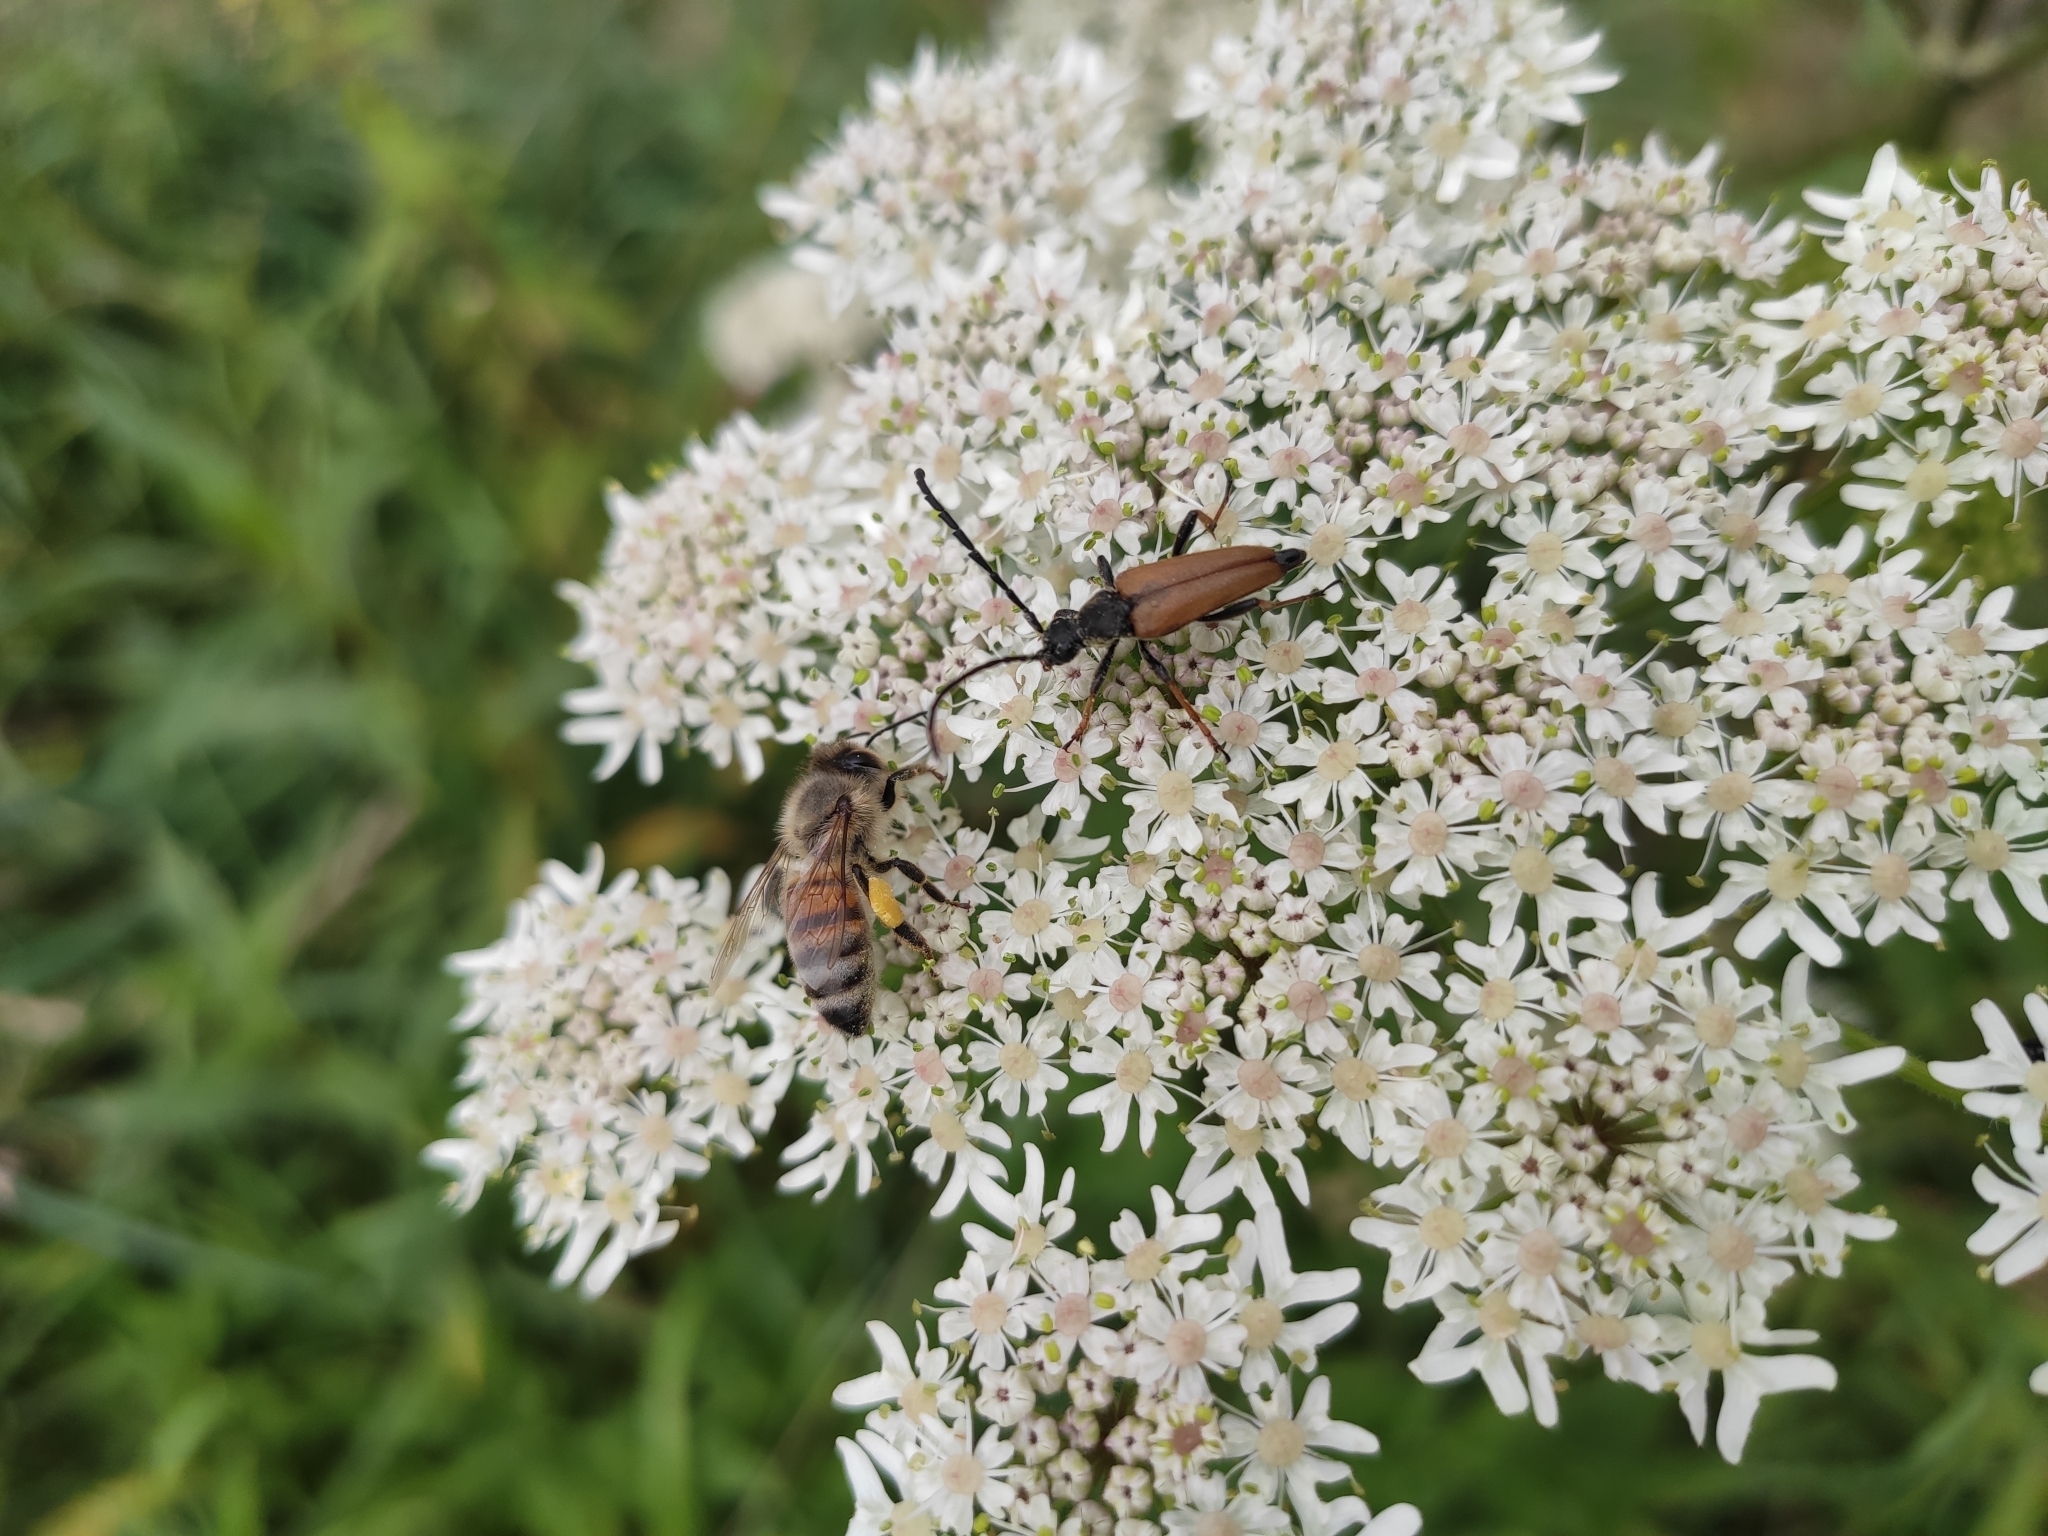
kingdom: Animalia
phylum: Arthropoda
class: Insecta
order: Coleoptera
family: Cerambycidae
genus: Stictoleptura
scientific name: Stictoleptura rubra
